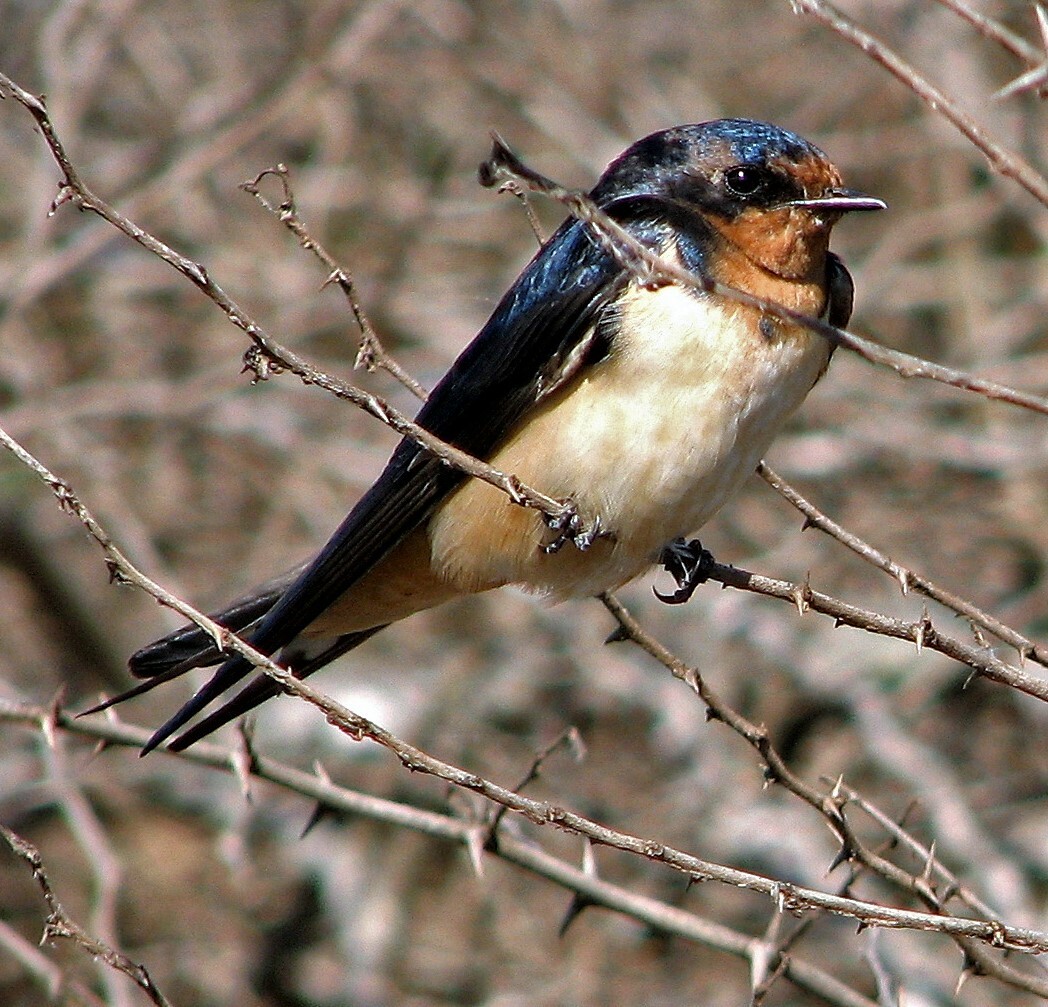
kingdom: Animalia
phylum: Chordata
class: Aves
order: Passeriformes
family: Hirundinidae
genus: Hirundo
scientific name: Hirundo rustica
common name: Barn swallow
